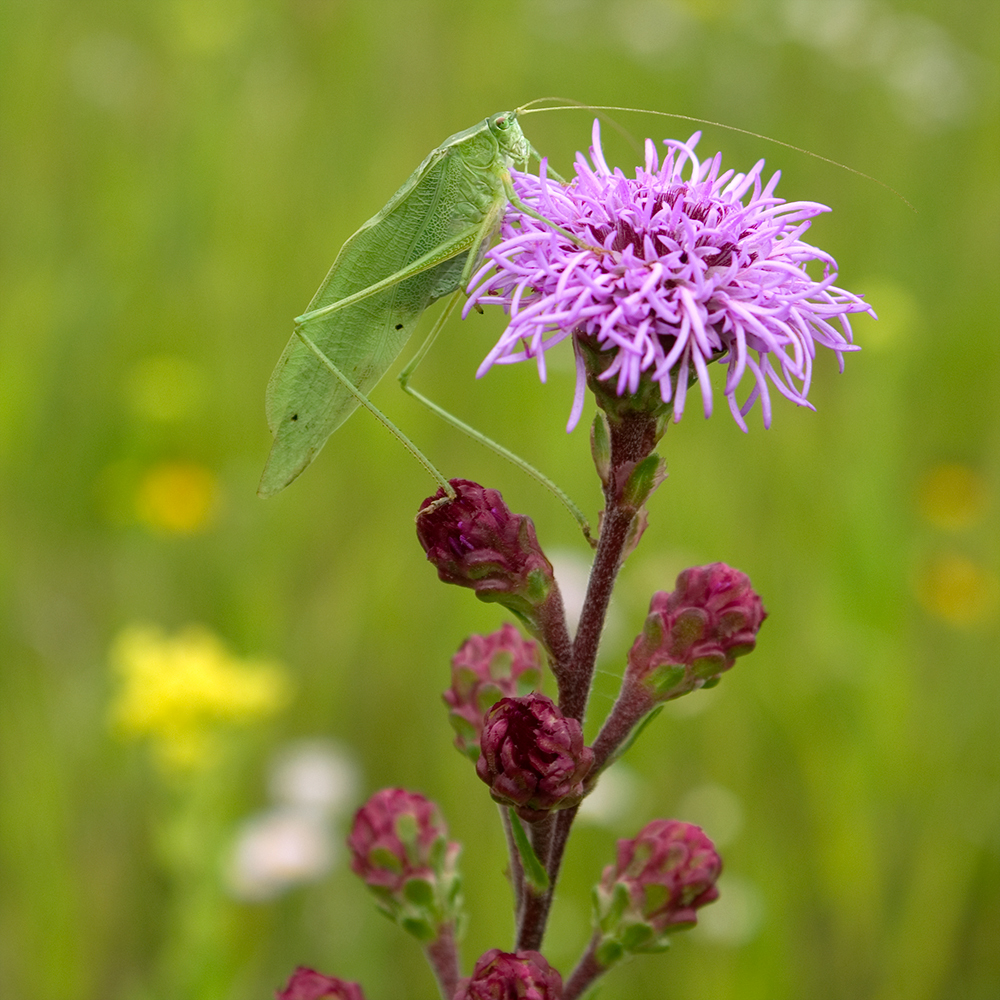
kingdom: Plantae
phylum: Tracheophyta
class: Magnoliopsida
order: Asterales
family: Asteraceae
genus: Liatris
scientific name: Liatris ligulistylis
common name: Northern plains gayfeather
